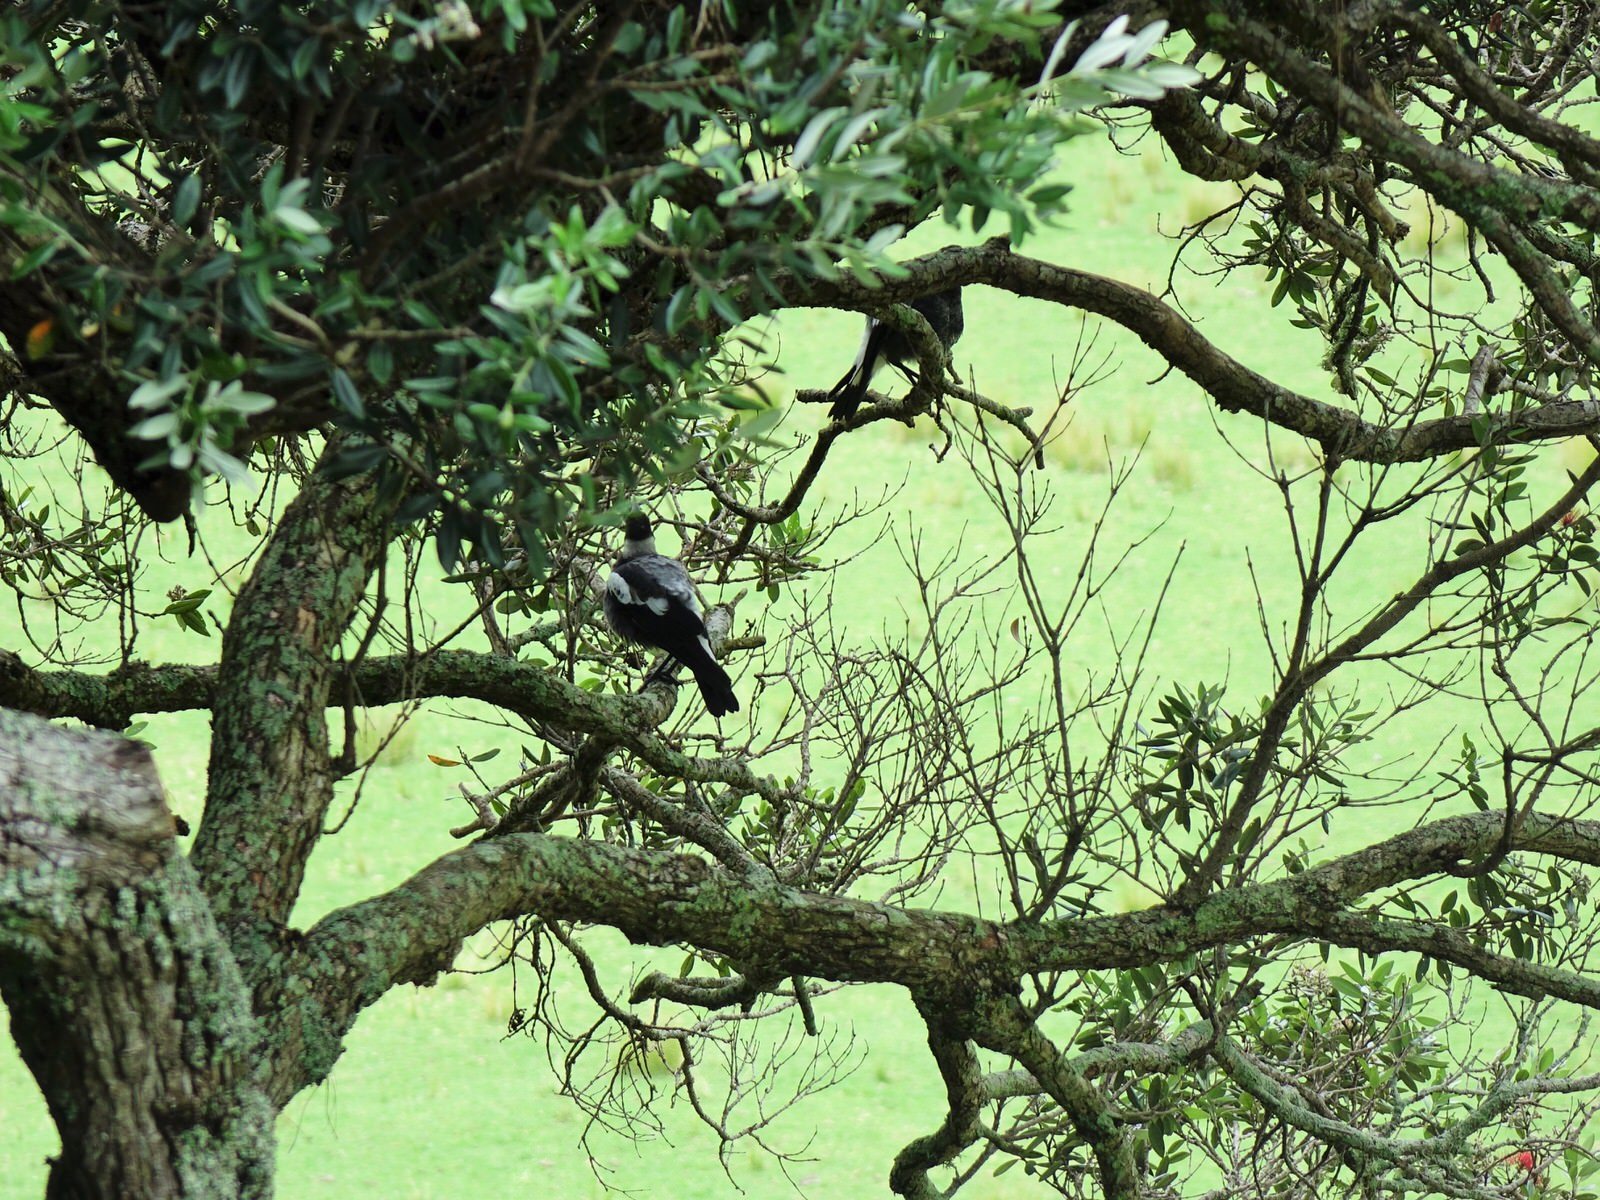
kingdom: Animalia
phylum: Chordata
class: Aves
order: Passeriformes
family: Cracticidae
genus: Gymnorhina
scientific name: Gymnorhina tibicen
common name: Australian magpie
